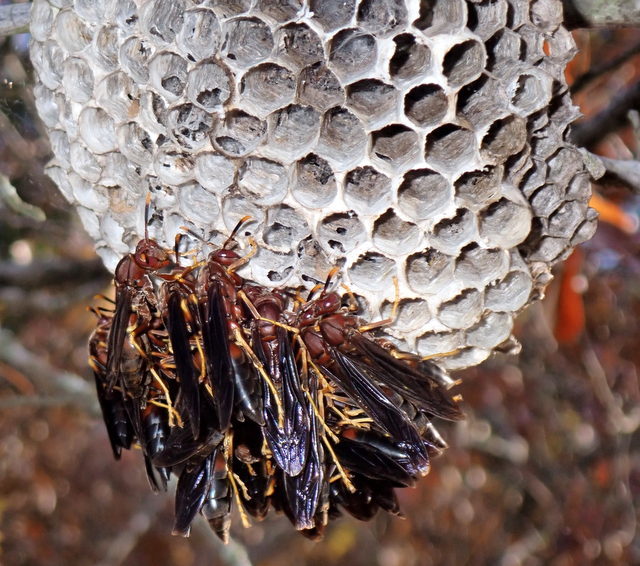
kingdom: Animalia
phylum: Arthropoda
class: Insecta
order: Hymenoptera
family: Eumenidae
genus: Polistes
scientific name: Polistes annularis
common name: Ringed paper wasp
